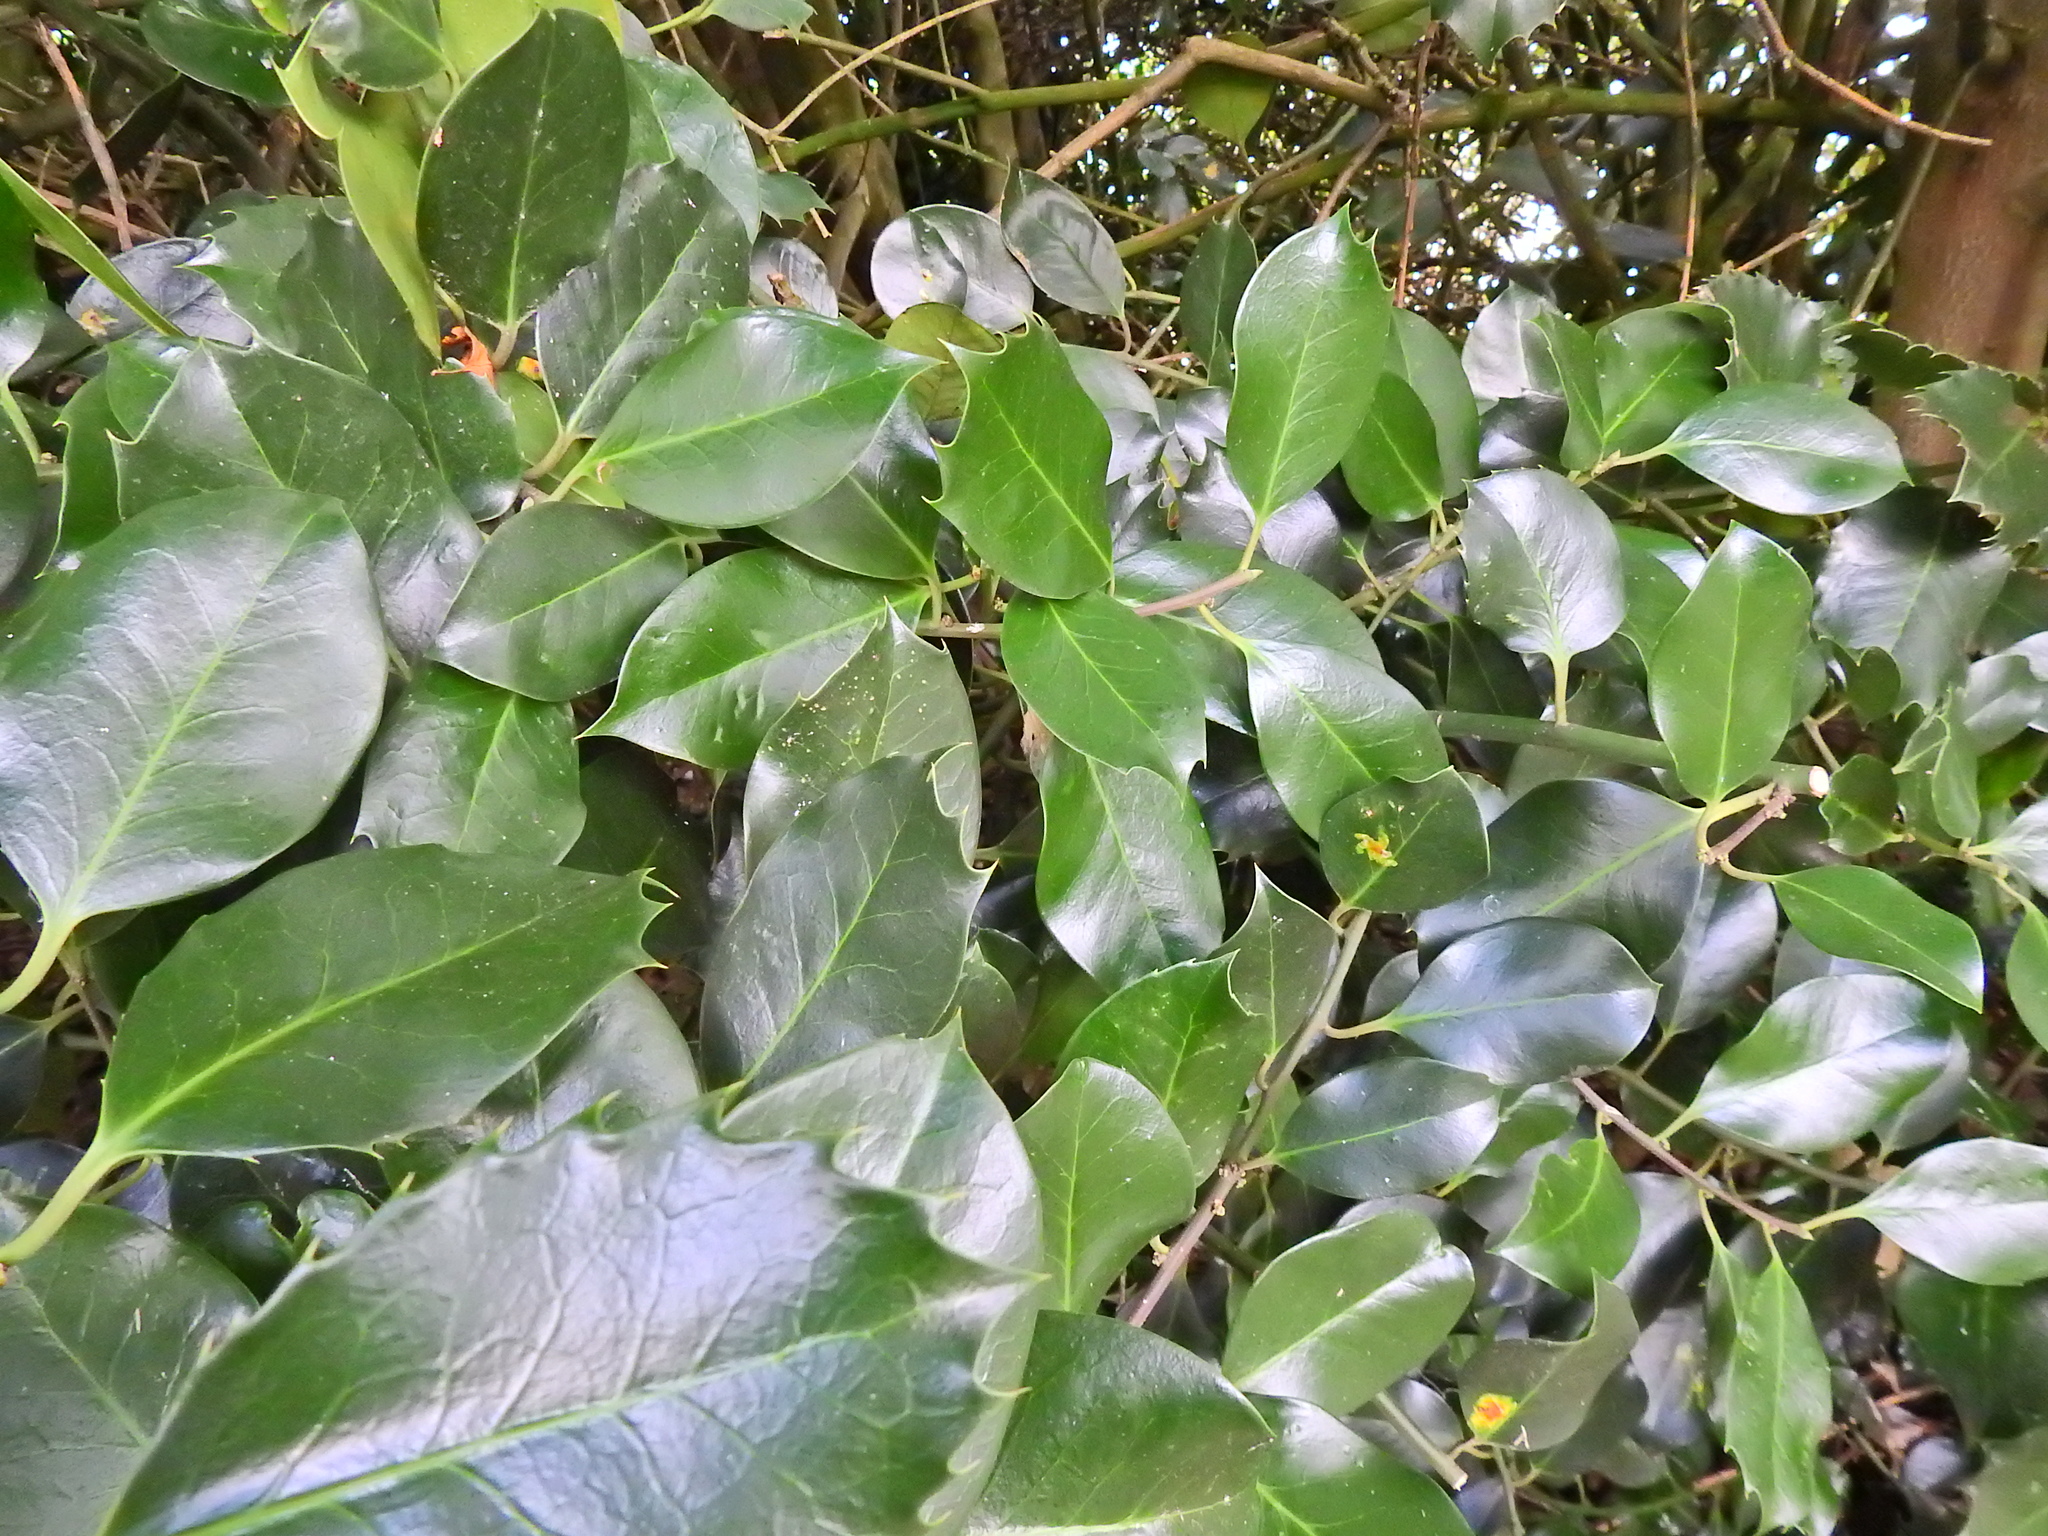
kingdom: Plantae
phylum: Tracheophyta
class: Magnoliopsida
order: Aquifoliales
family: Aquifoliaceae
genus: Ilex
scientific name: Ilex aquifolium
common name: English holly
